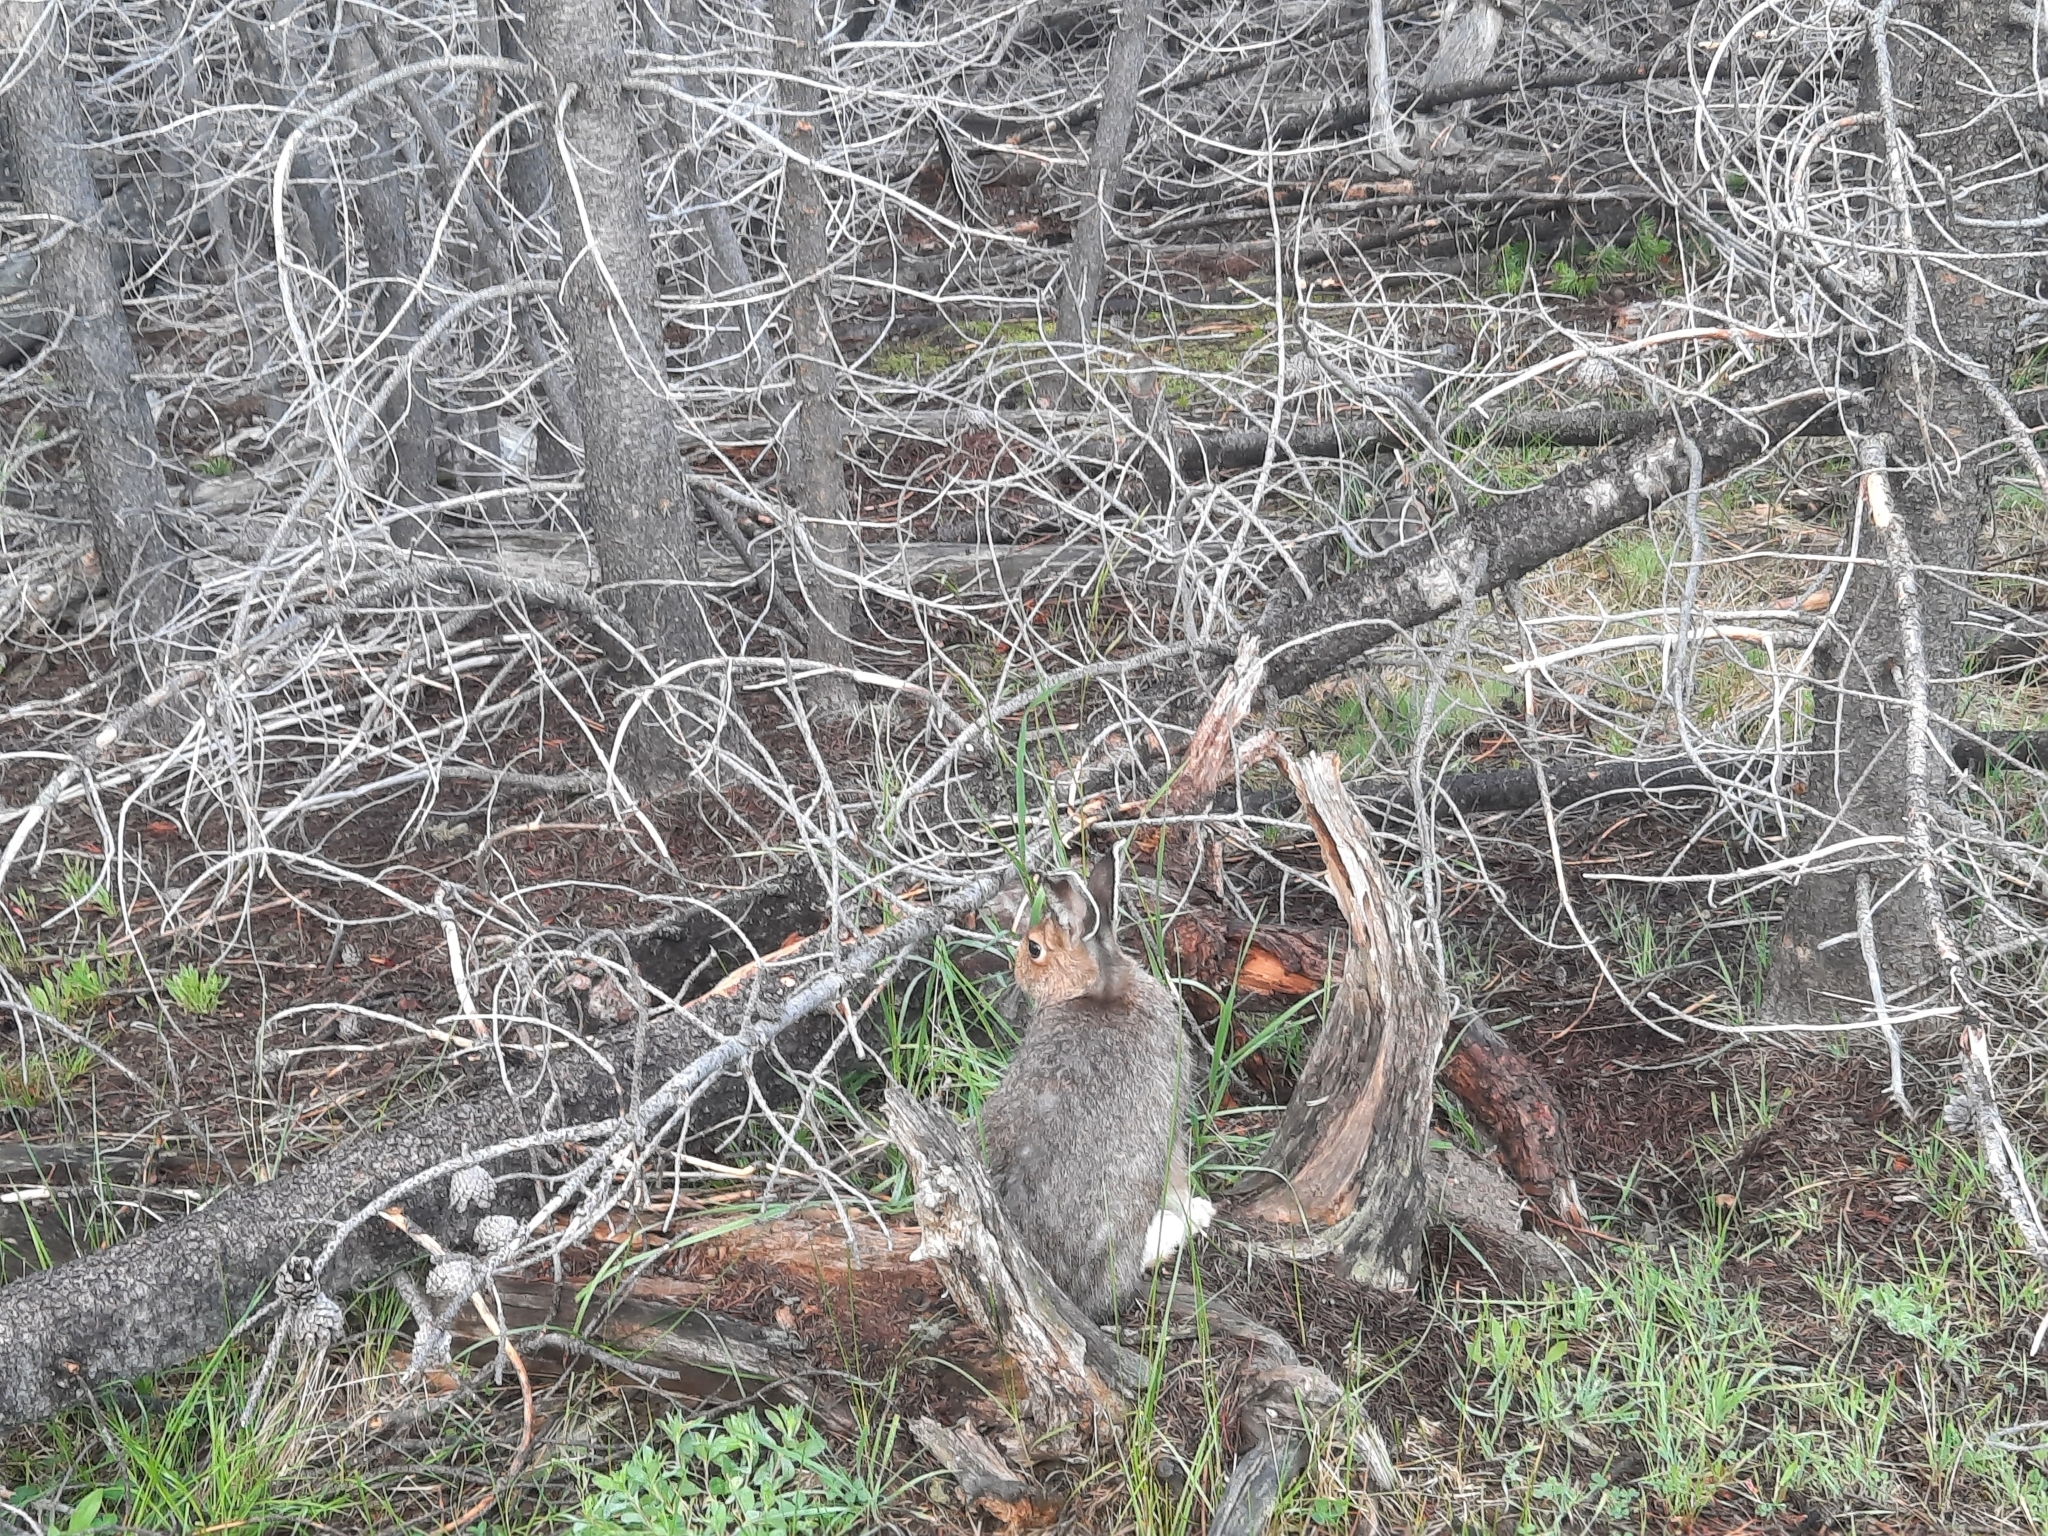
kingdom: Animalia
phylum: Chordata
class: Mammalia
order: Lagomorpha
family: Leporidae
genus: Lepus
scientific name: Lepus americanus
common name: Snowshoe hare
